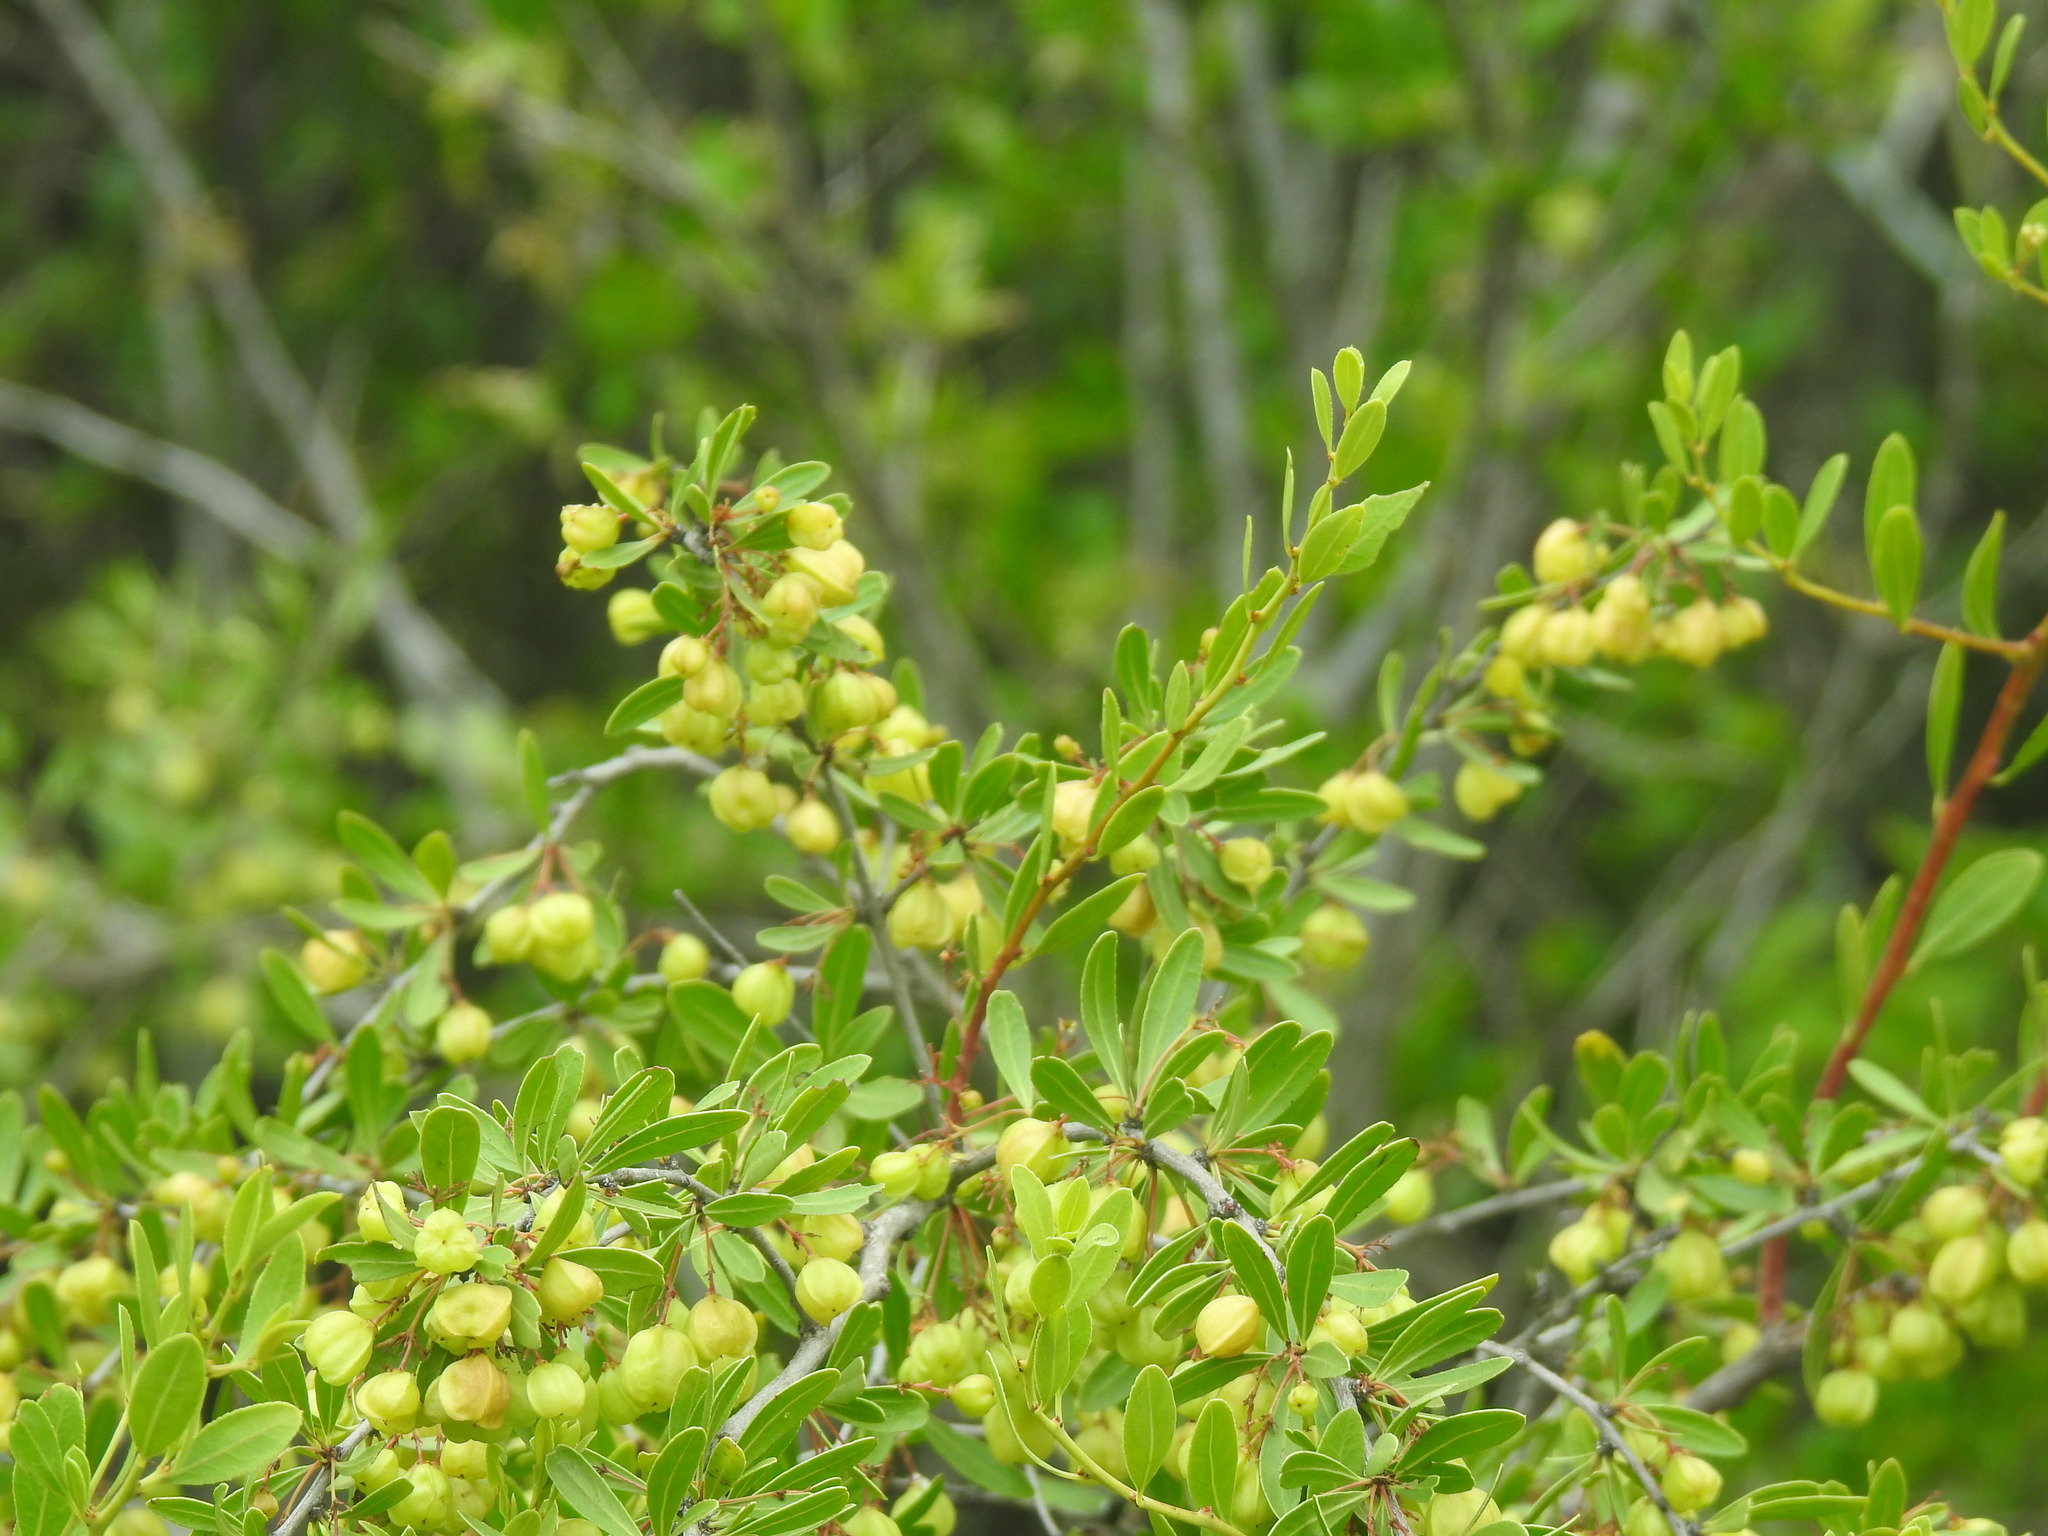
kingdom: Plantae
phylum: Tracheophyta
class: Magnoliopsida
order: Celastrales
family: Celastraceae
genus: Gymnosporia
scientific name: Gymnosporia tenuispina
